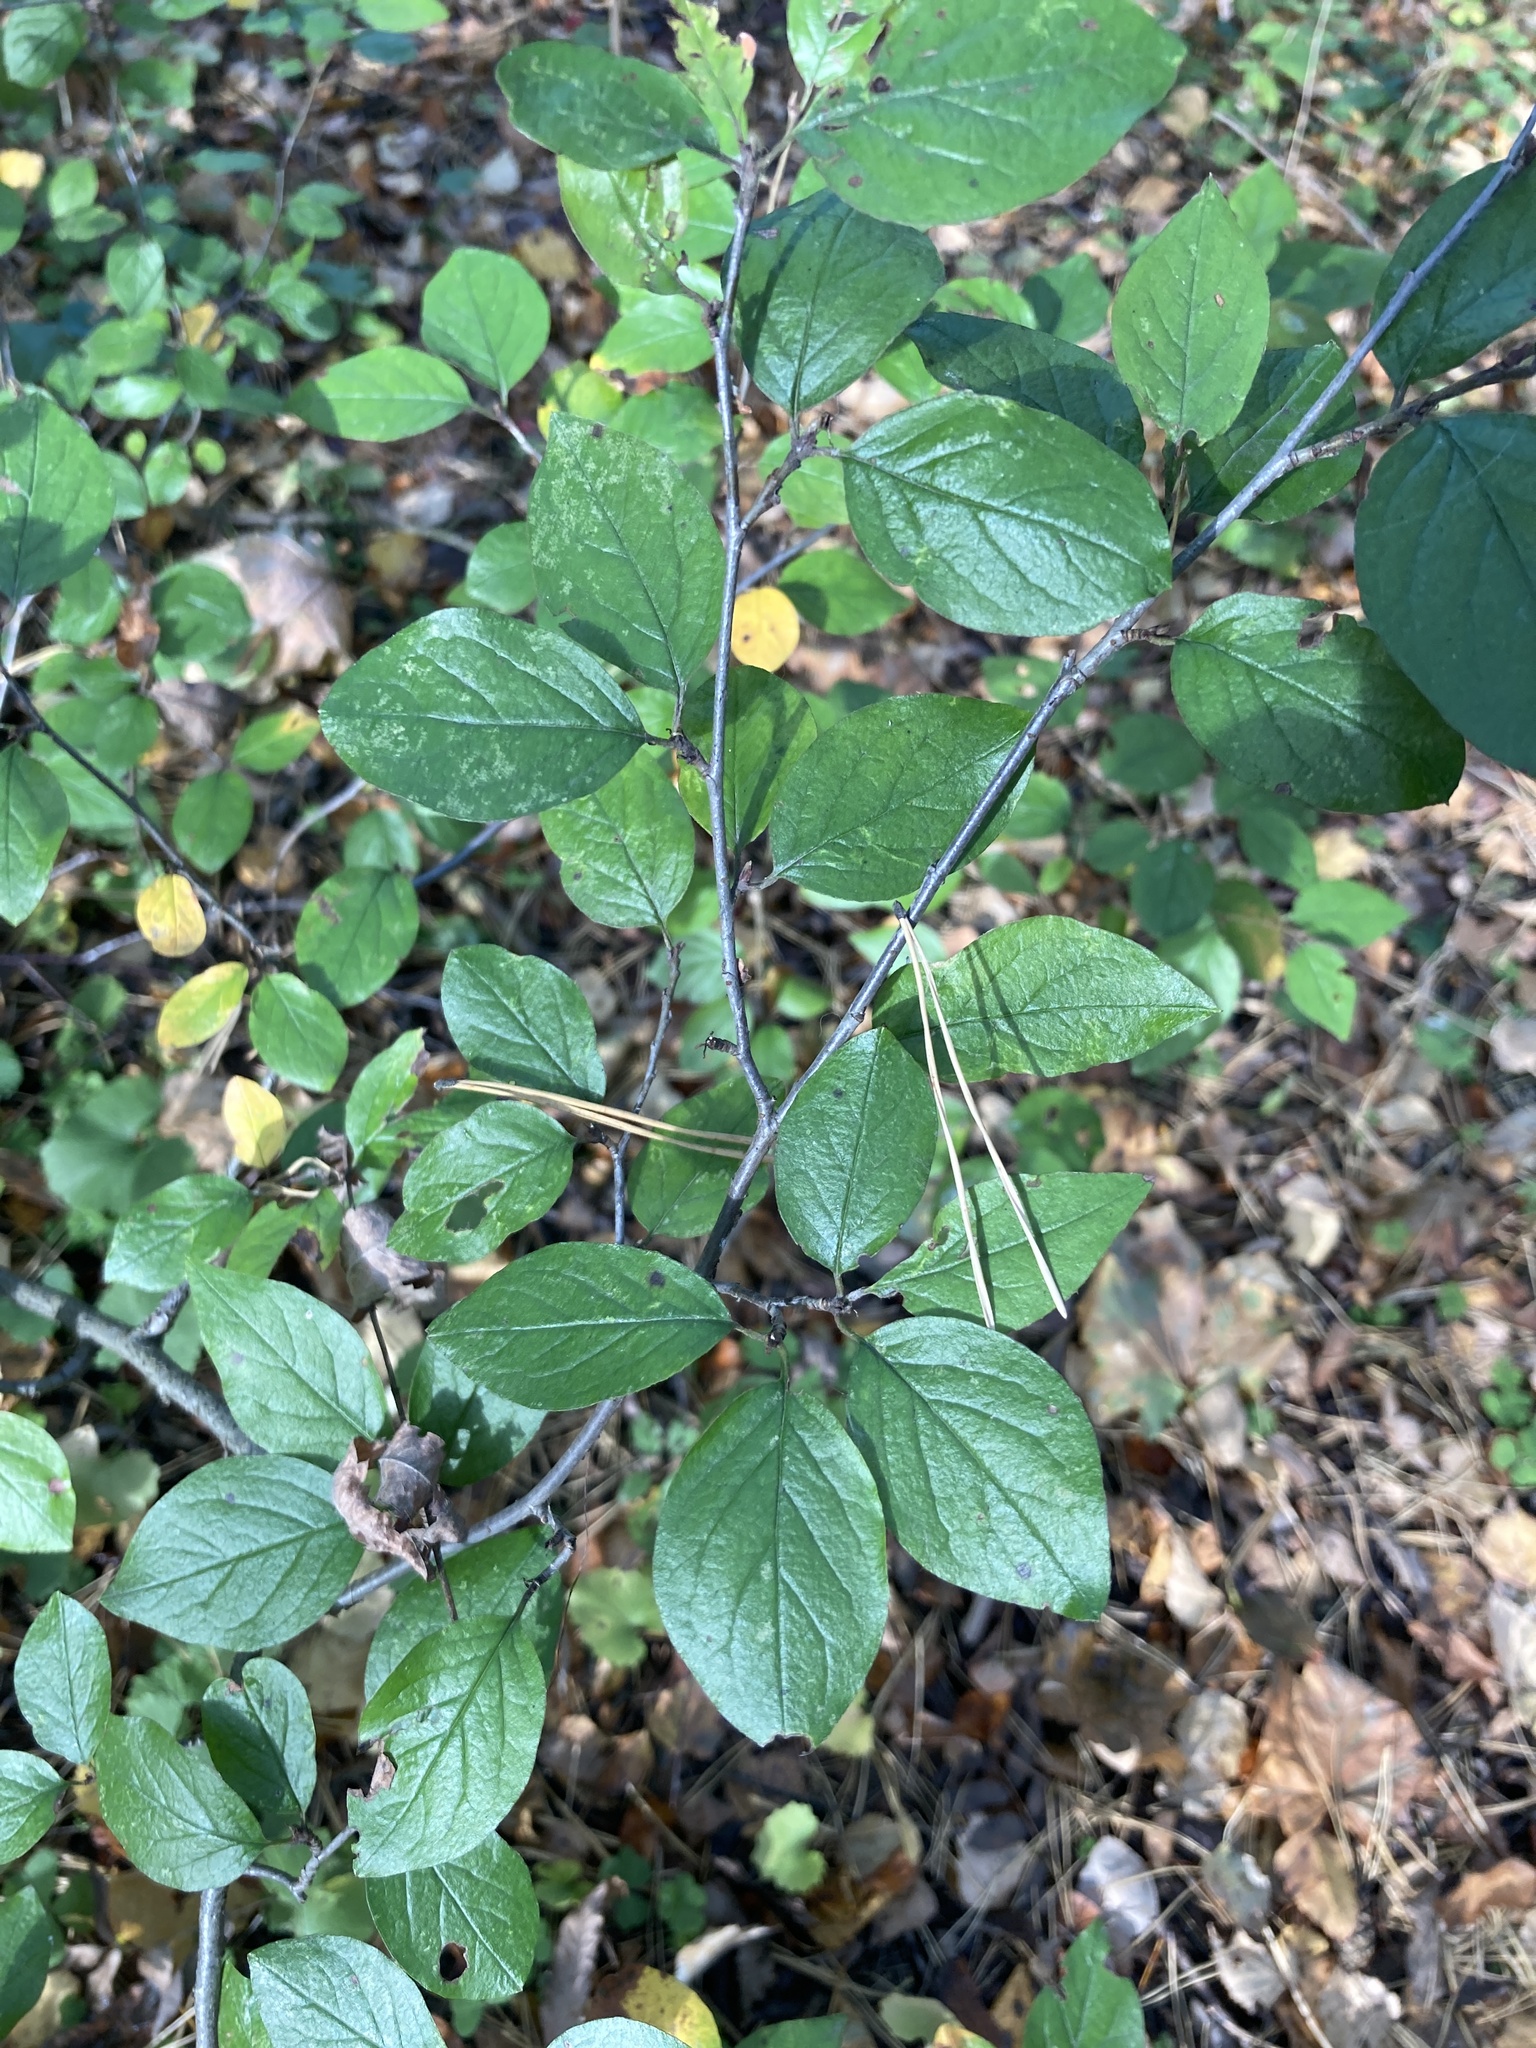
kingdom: Plantae
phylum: Tracheophyta
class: Magnoliopsida
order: Rosales
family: Rosaceae
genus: Cotoneaster
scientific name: Cotoneaster acutifolius
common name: Peking cotoneaster
